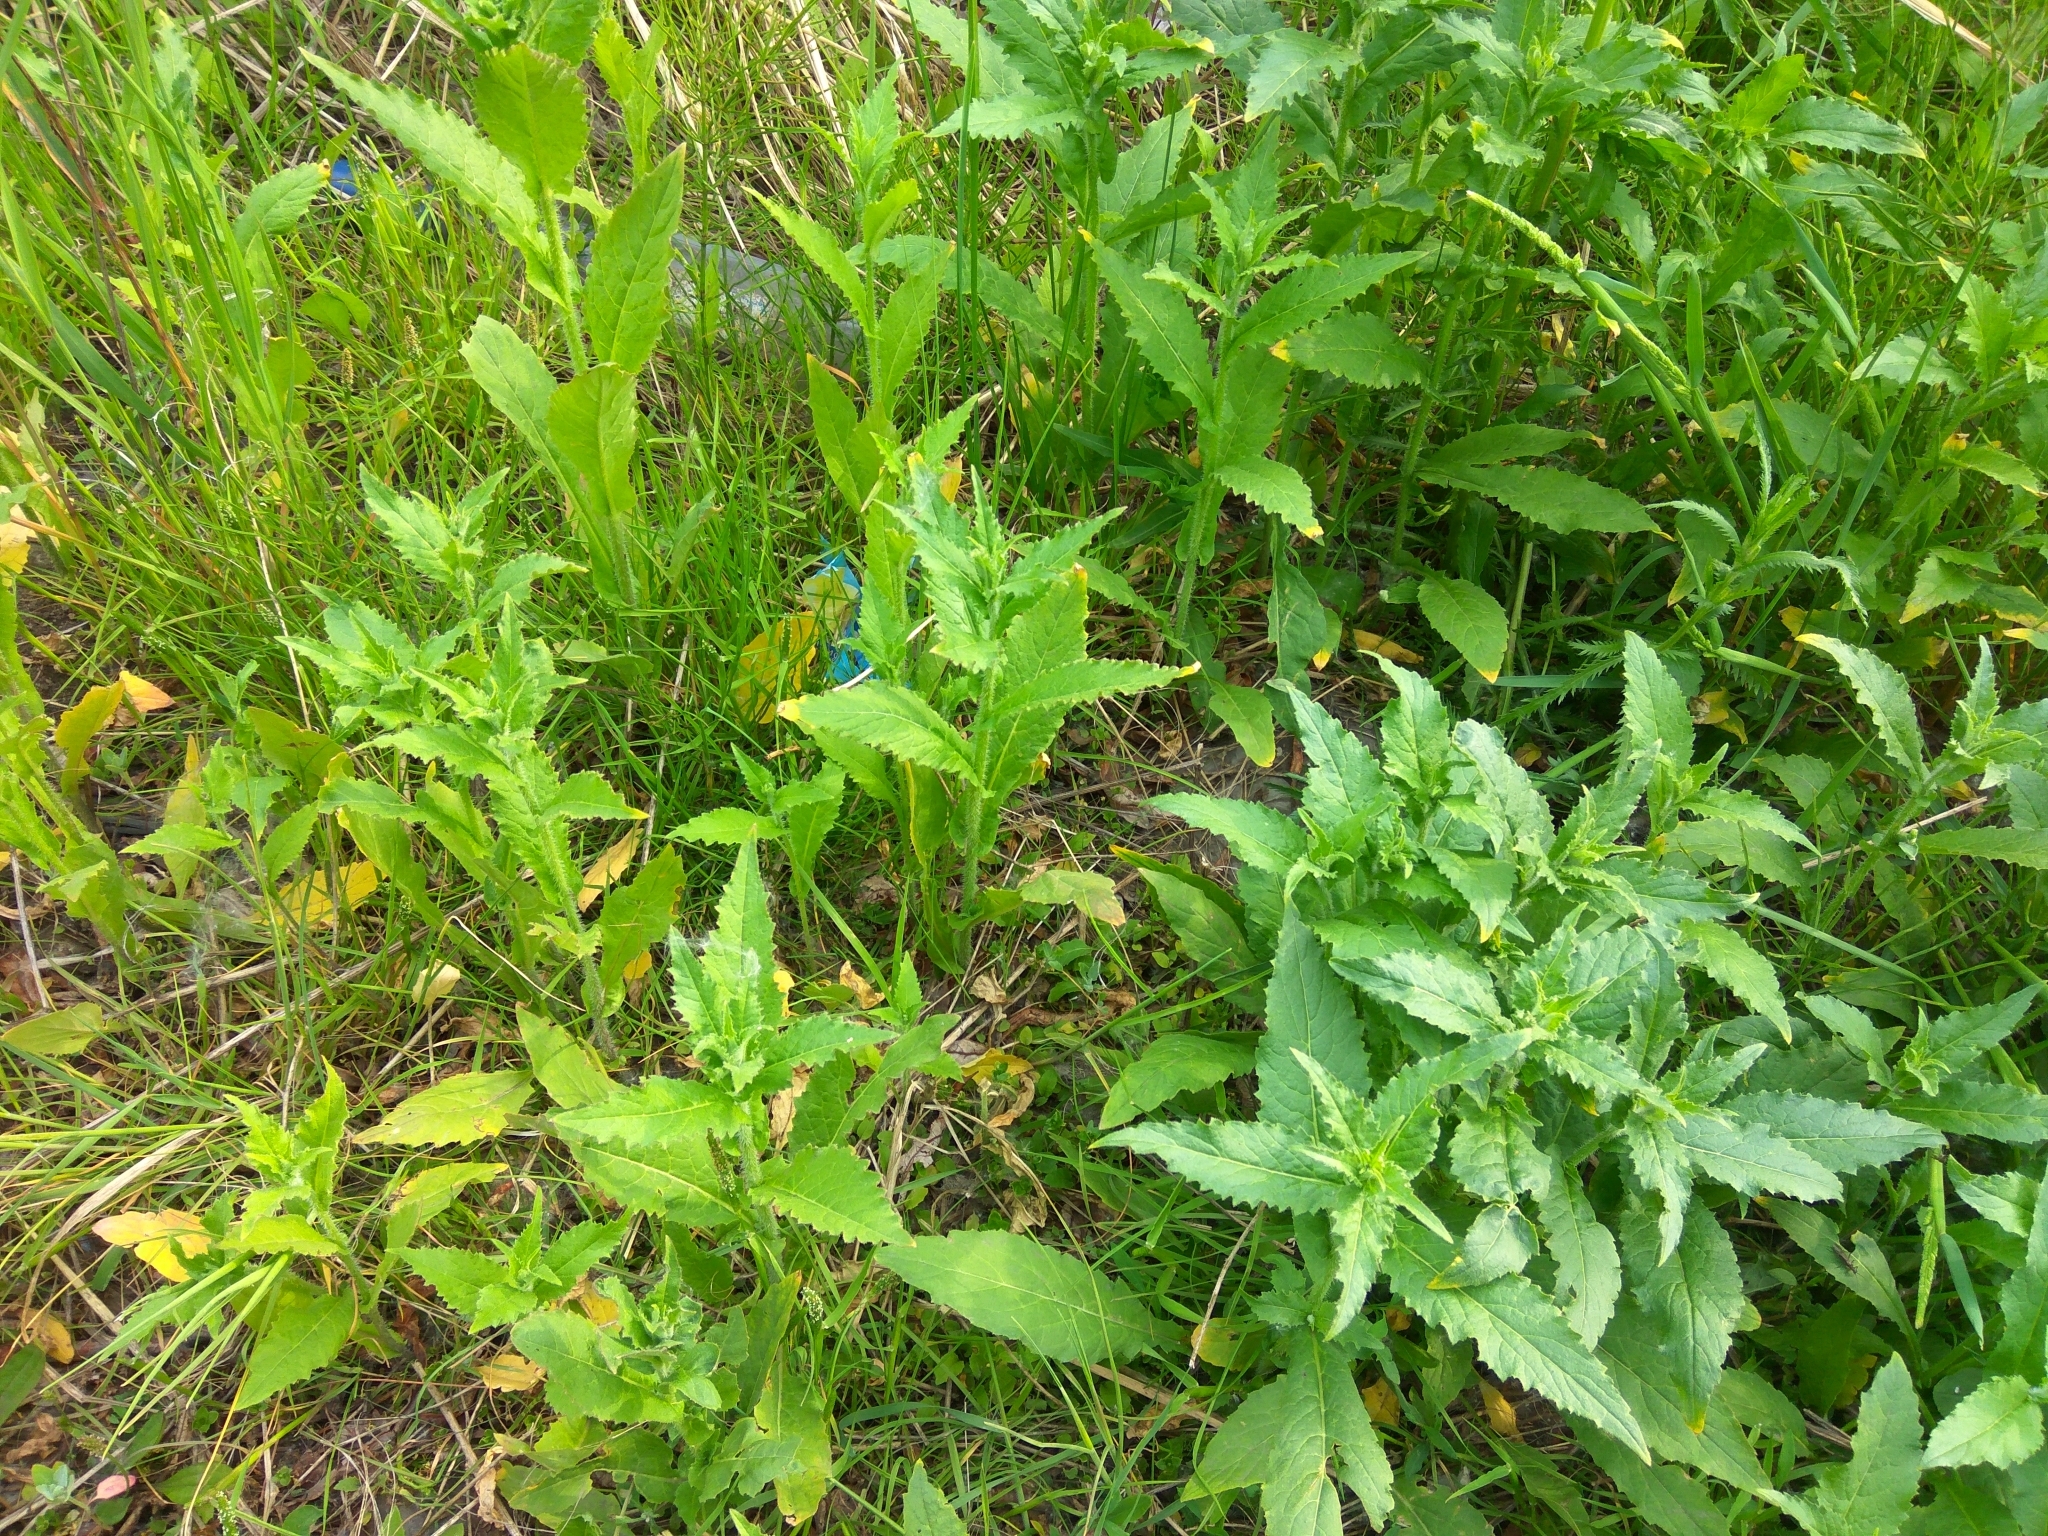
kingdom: Plantae
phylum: Tracheophyta
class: Magnoliopsida
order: Brassicales
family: Brassicaceae
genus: Catolobus
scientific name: Catolobus pendulus
